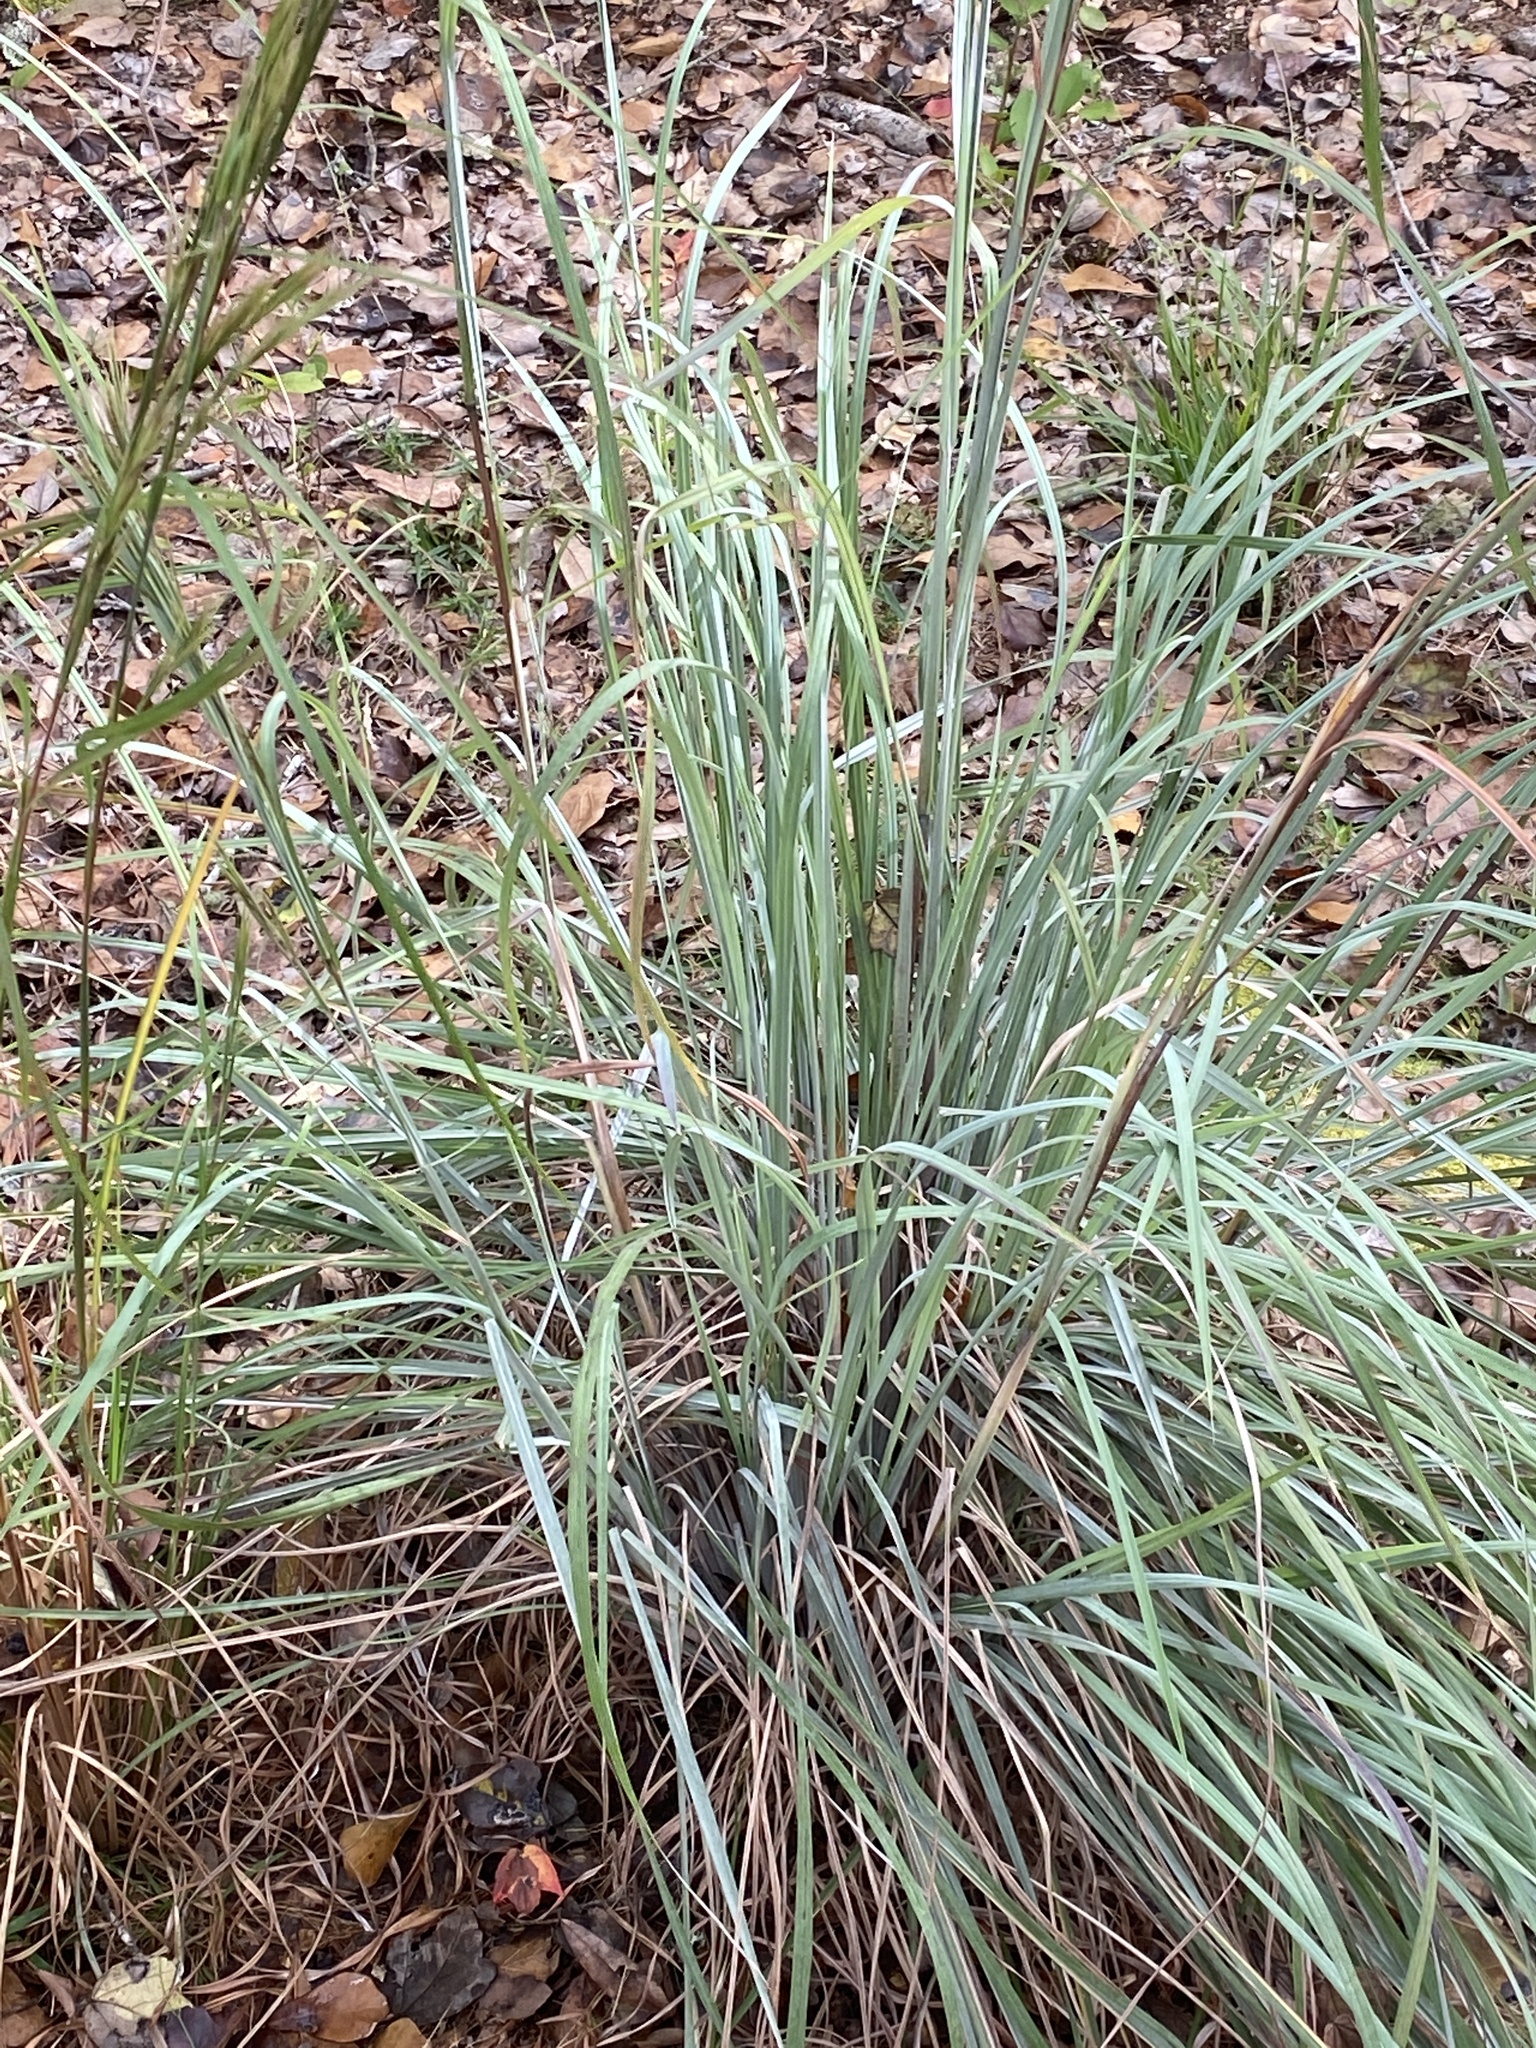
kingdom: Plantae
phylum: Tracheophyta
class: Liliopsida
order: Poales
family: Poaceae
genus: Andropogon
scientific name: Andropogon cretaceus
